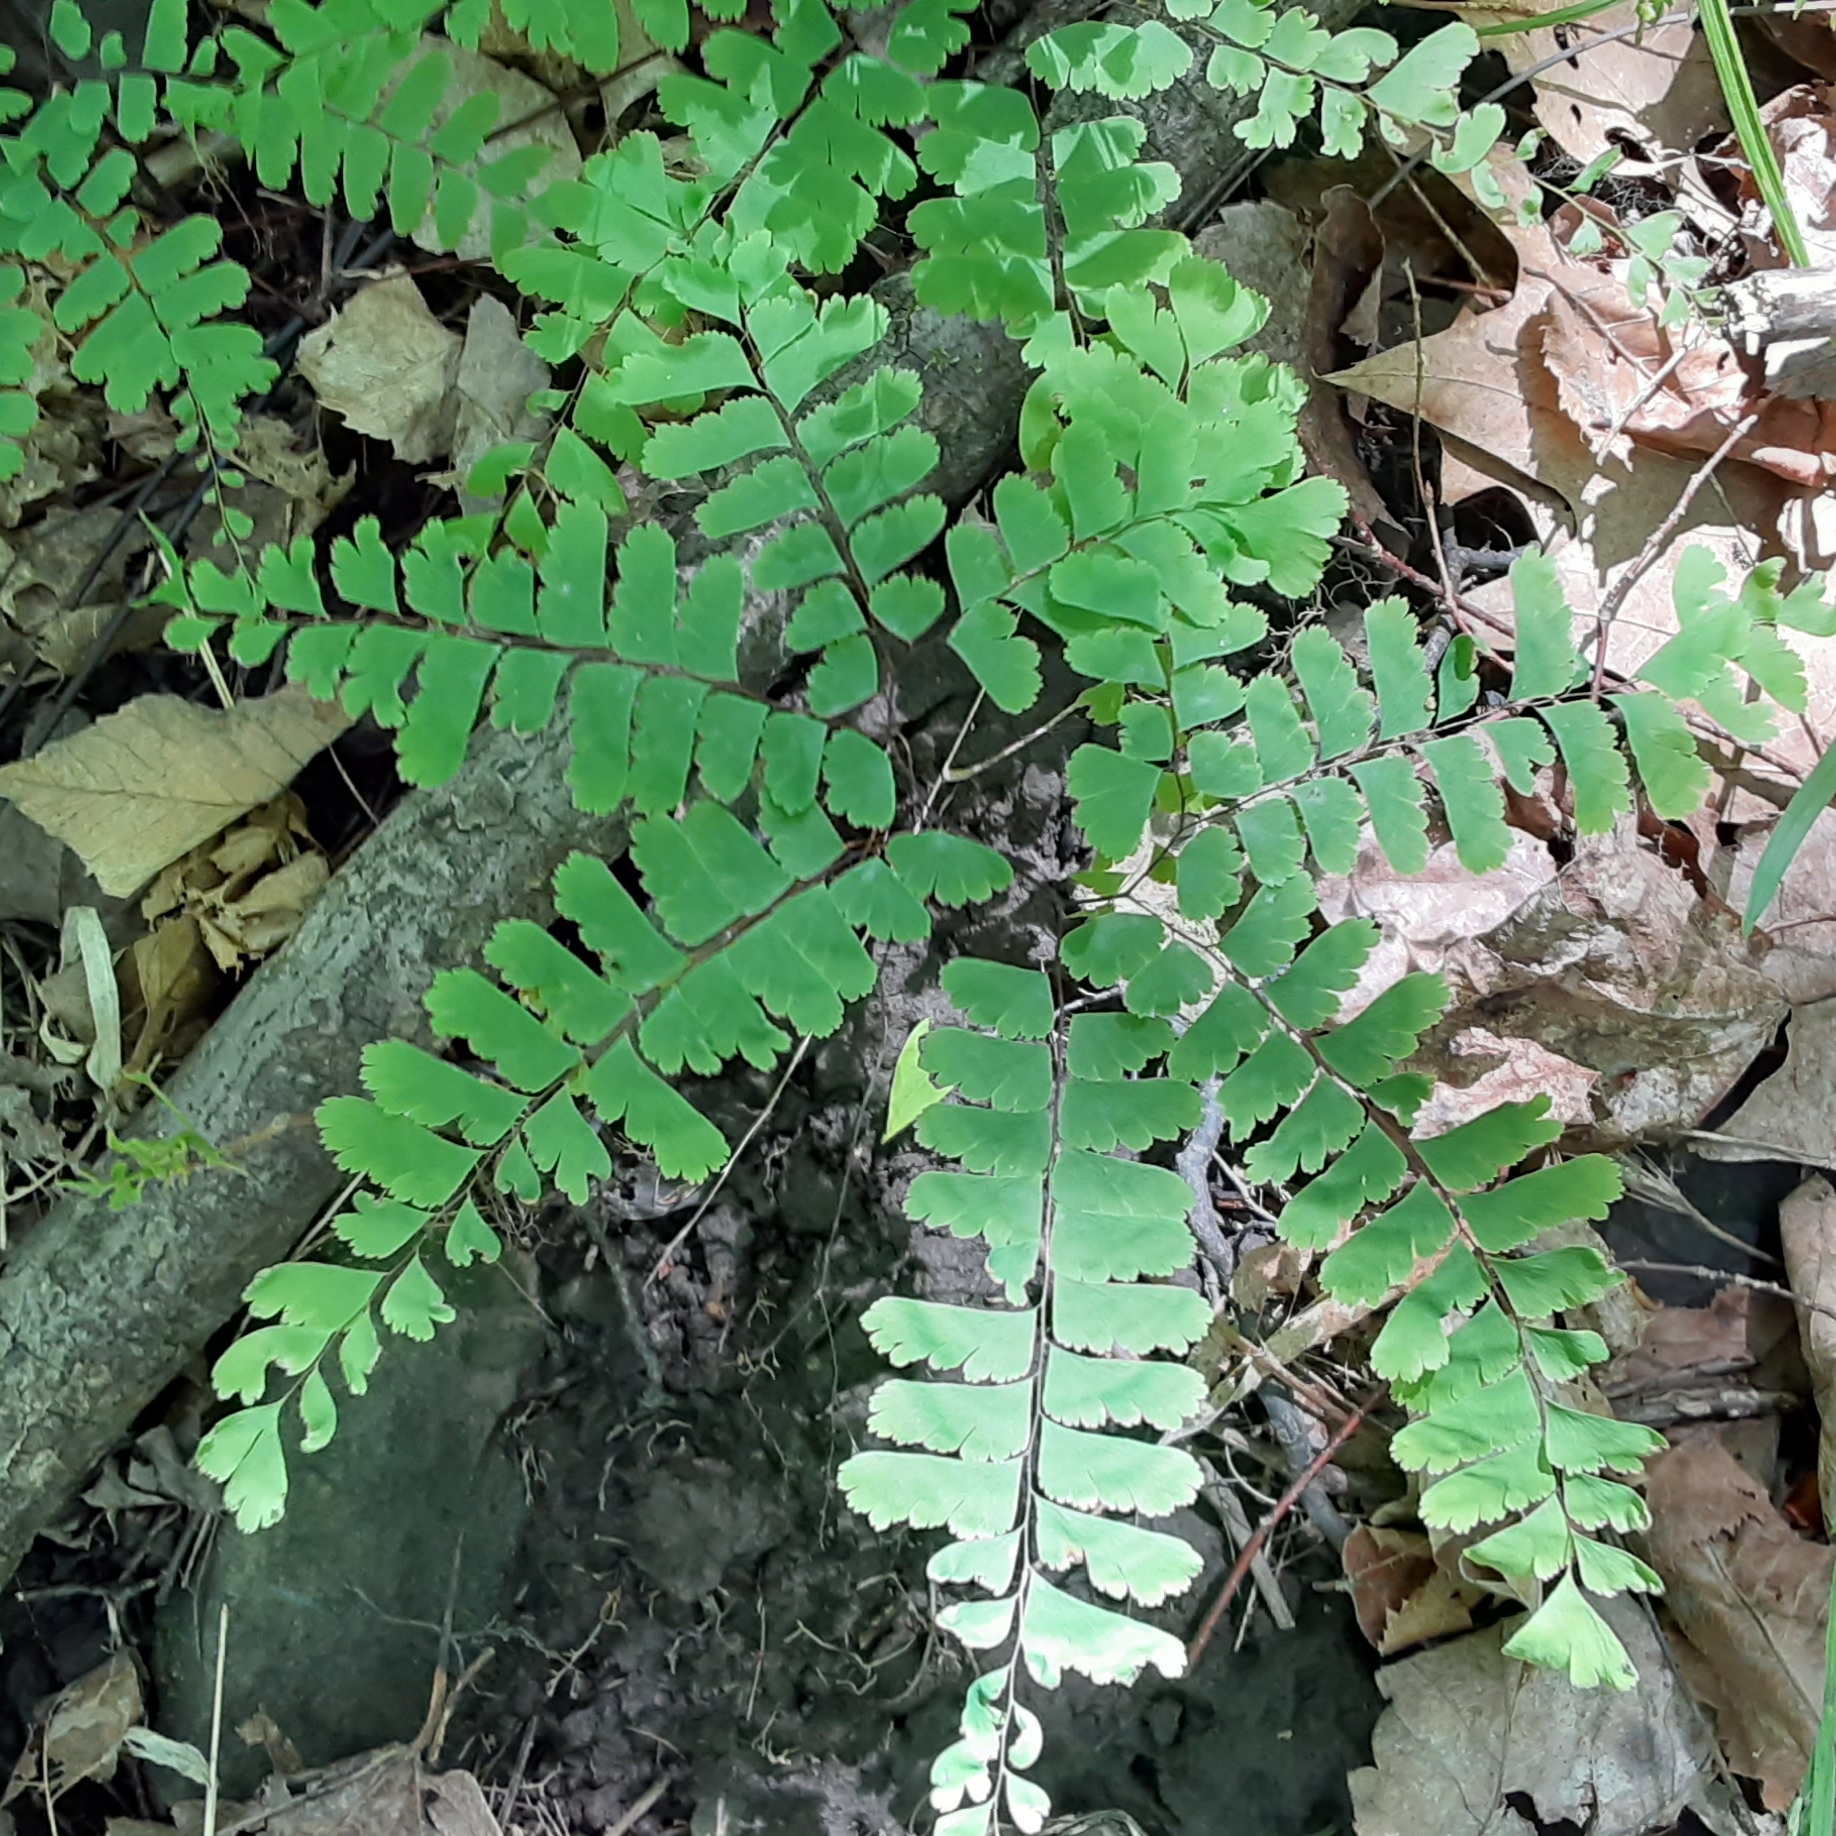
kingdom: Plantae
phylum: Tracheophyta
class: Polypodiopsida
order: Polypodiales
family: Pteridaceae
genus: Adiantum
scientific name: Adiantum pedatum
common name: Five-finger fern
